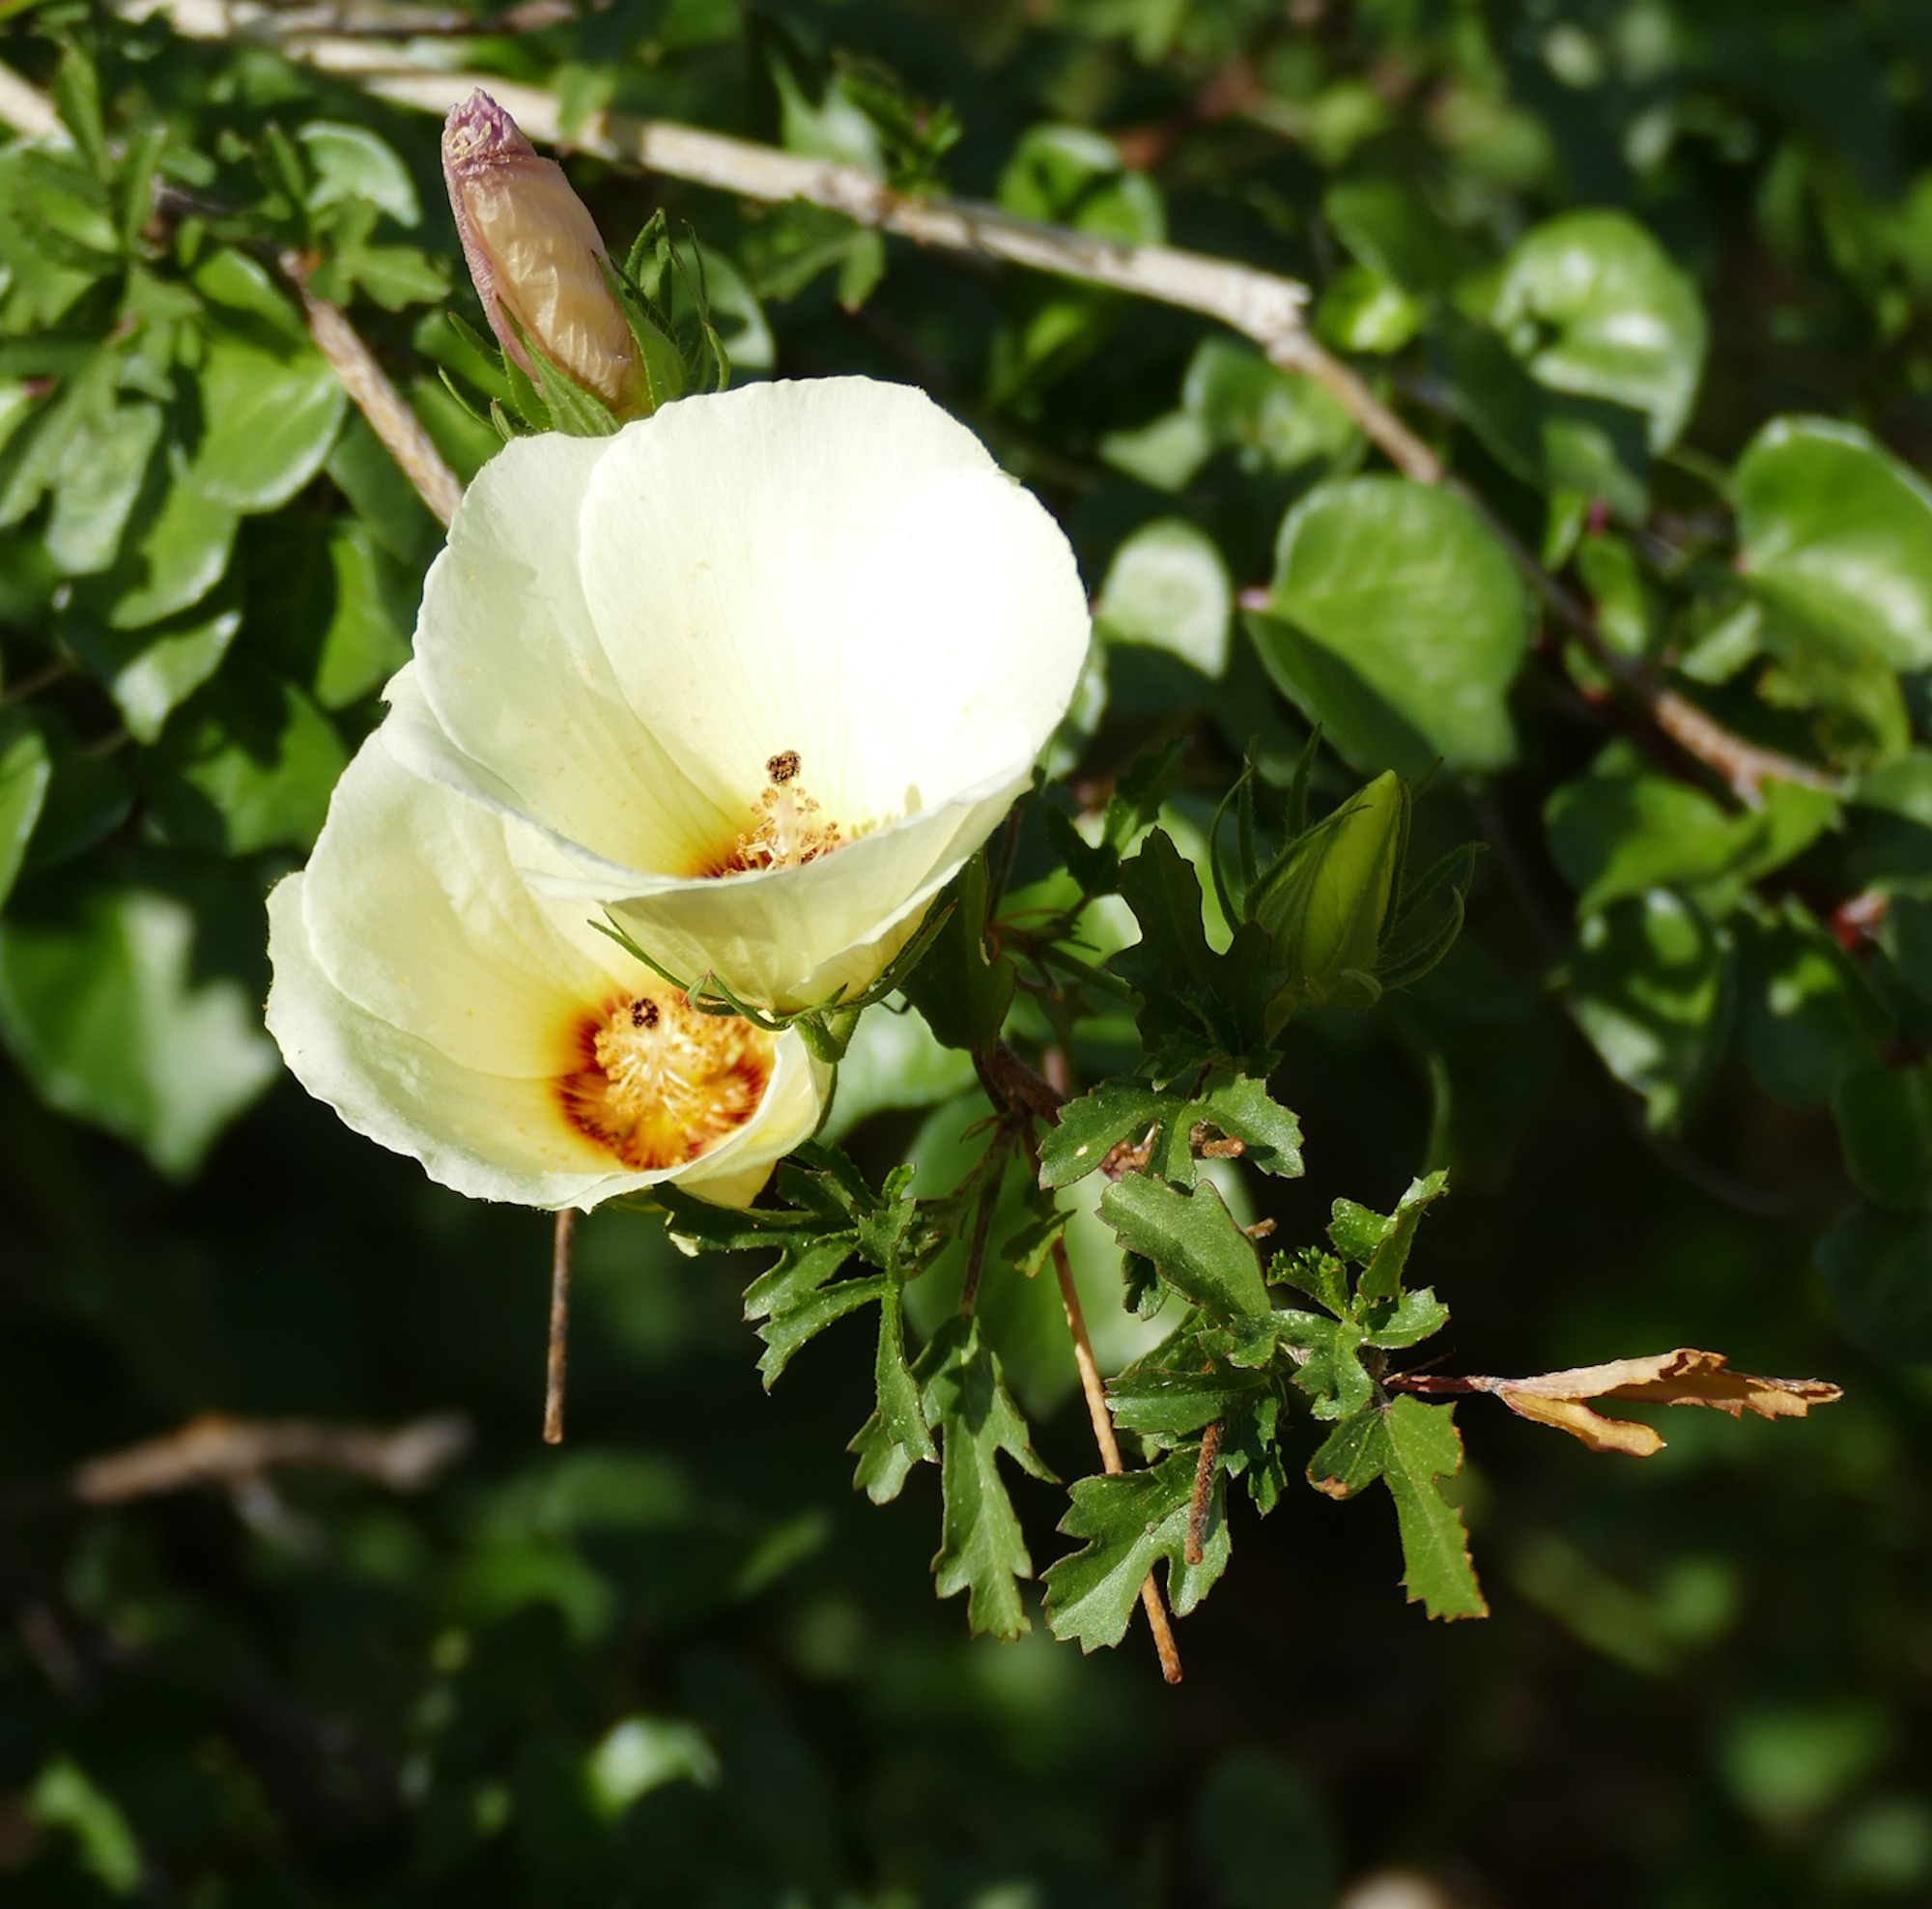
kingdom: Plantae
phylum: Tracheophyta
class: Magnoliopsida
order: Malvales
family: Malvaceae
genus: Hibiscus
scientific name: Hibiscus coulteri
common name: Desert rose-mallow
